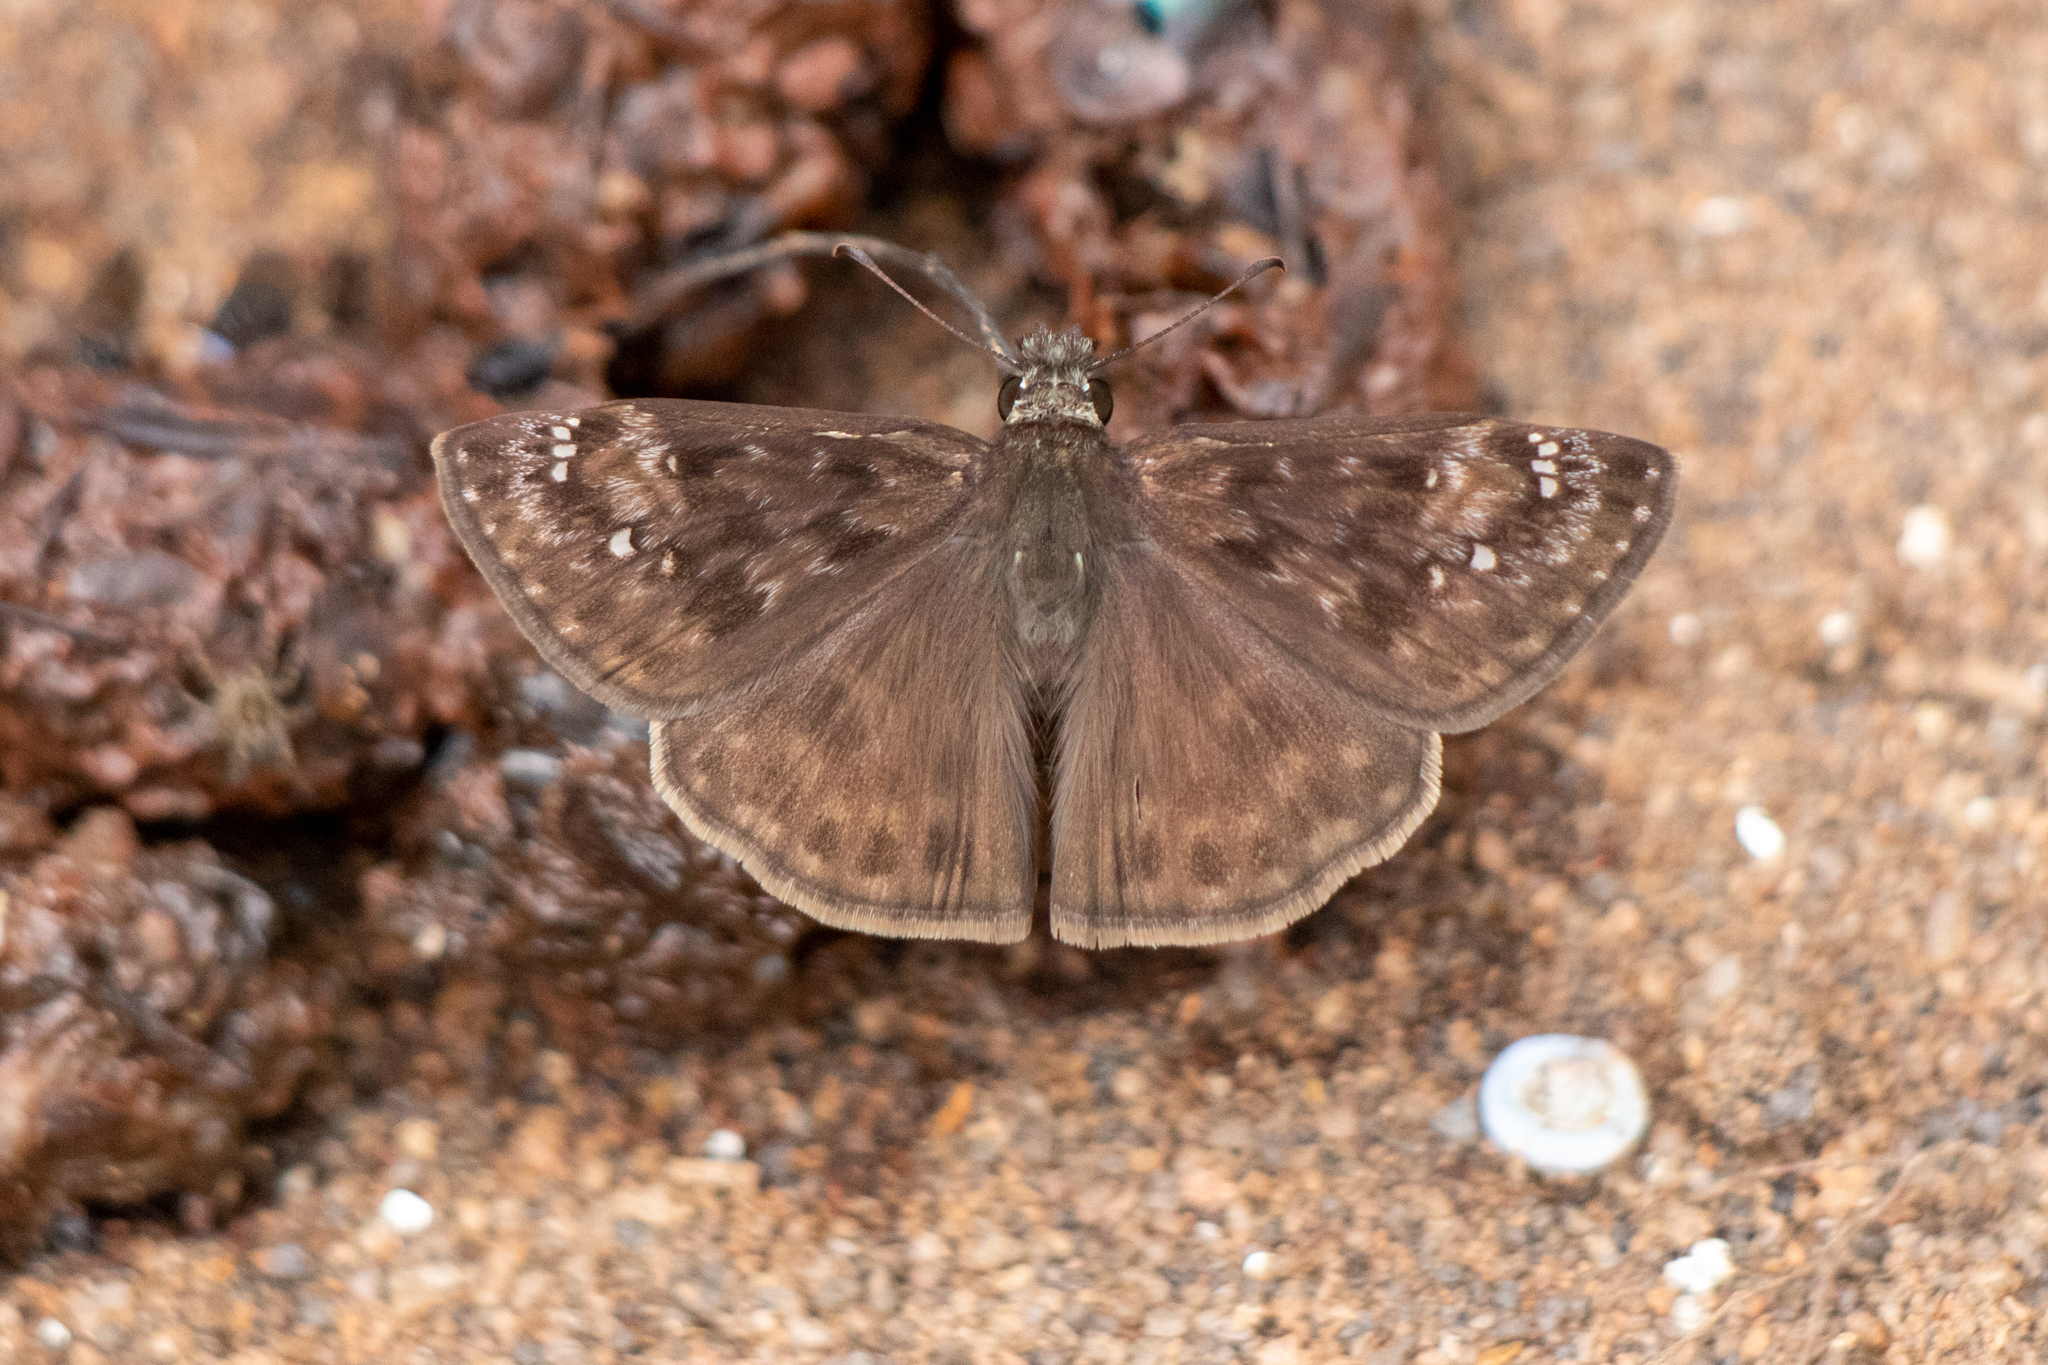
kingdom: Animalia
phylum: Arthropoda
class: Insecta
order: Lepidoptera
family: Hesperiidae
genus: Erynnis
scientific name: Erynnis horatius
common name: Horace's duskywing
